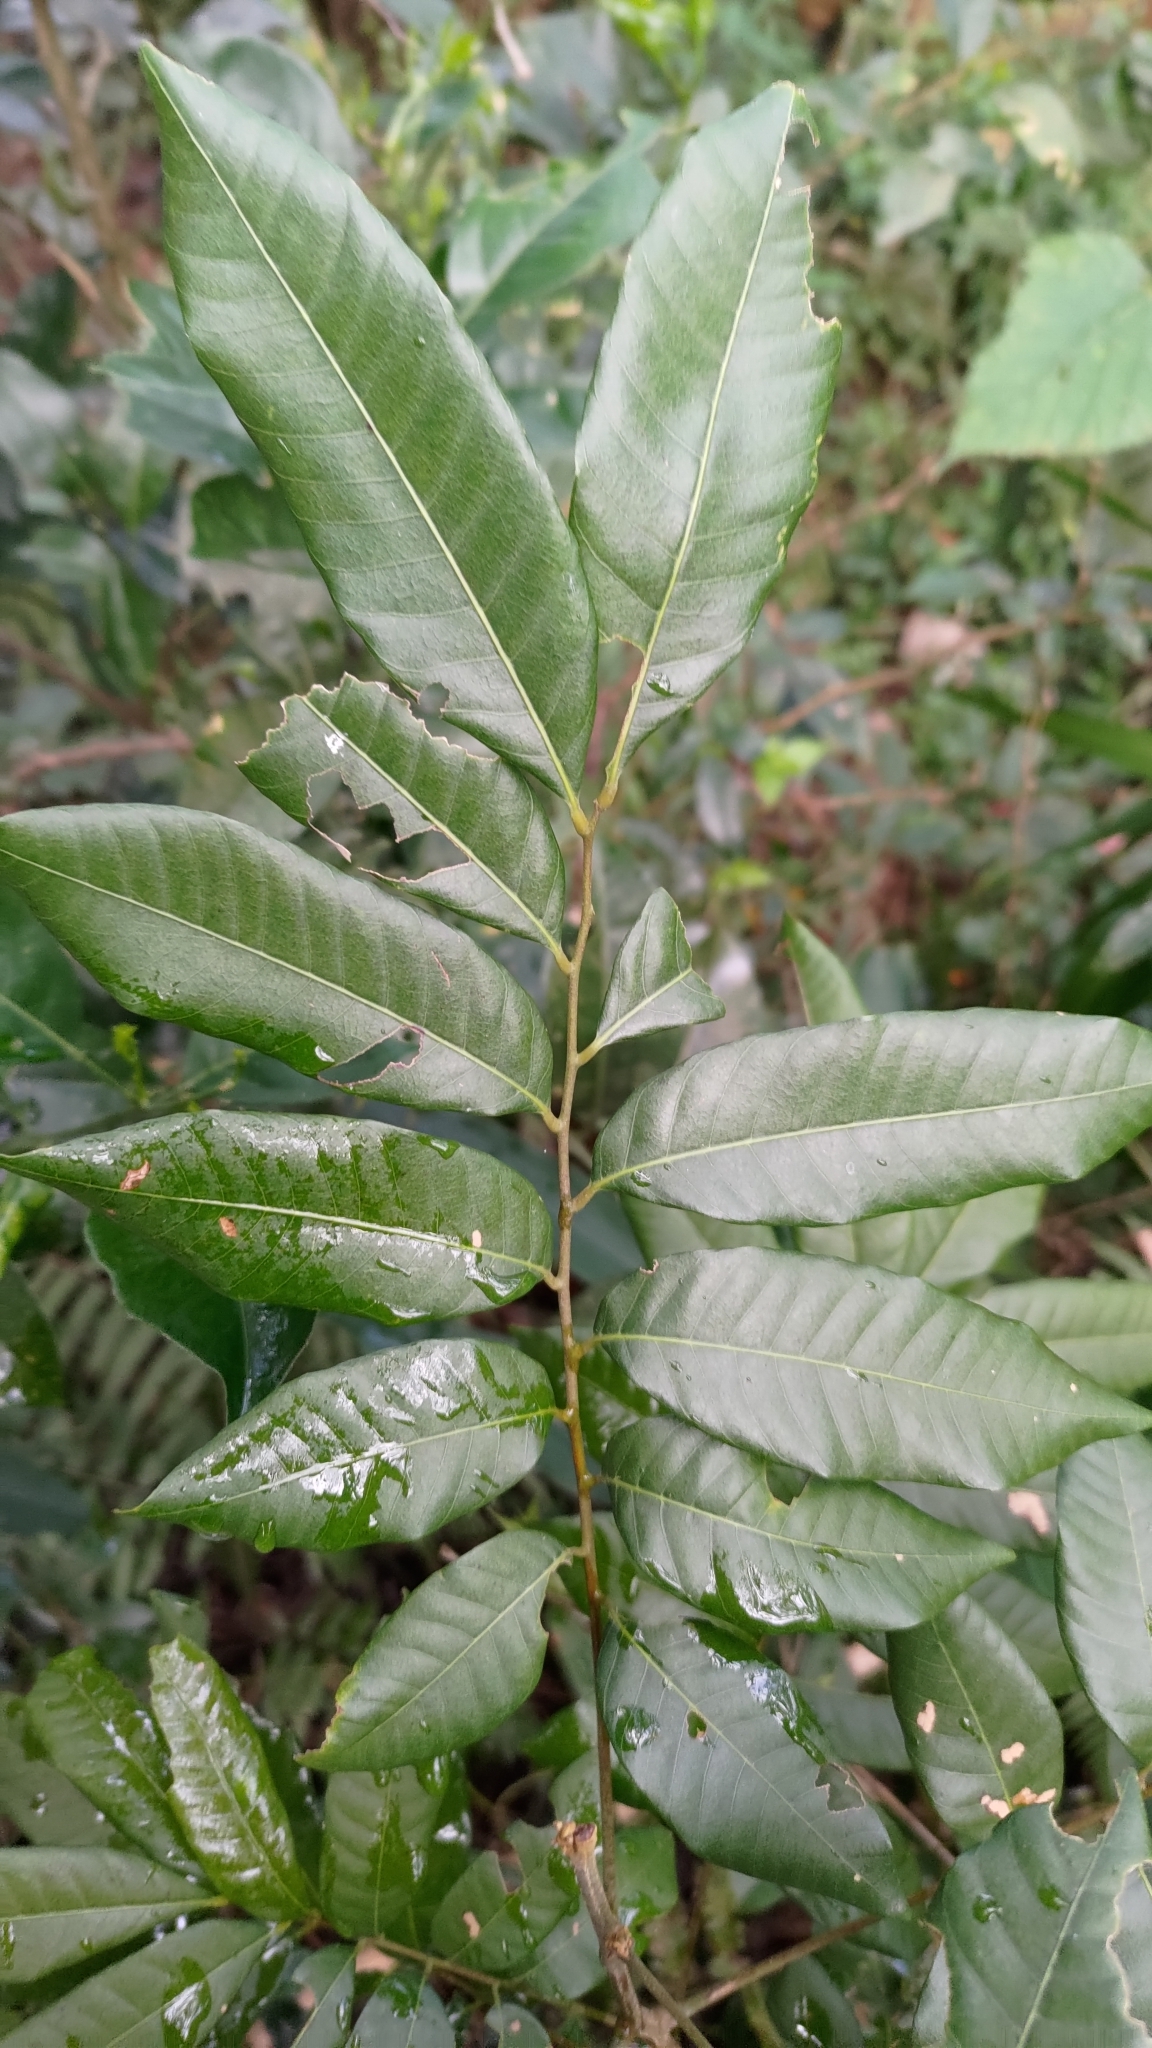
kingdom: Plantae
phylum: Tracheophyta
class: Magnoliopsida
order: Sapindales
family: Sapindaceae
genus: Dimocarpus
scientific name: Dimocarpus longan
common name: Longan
